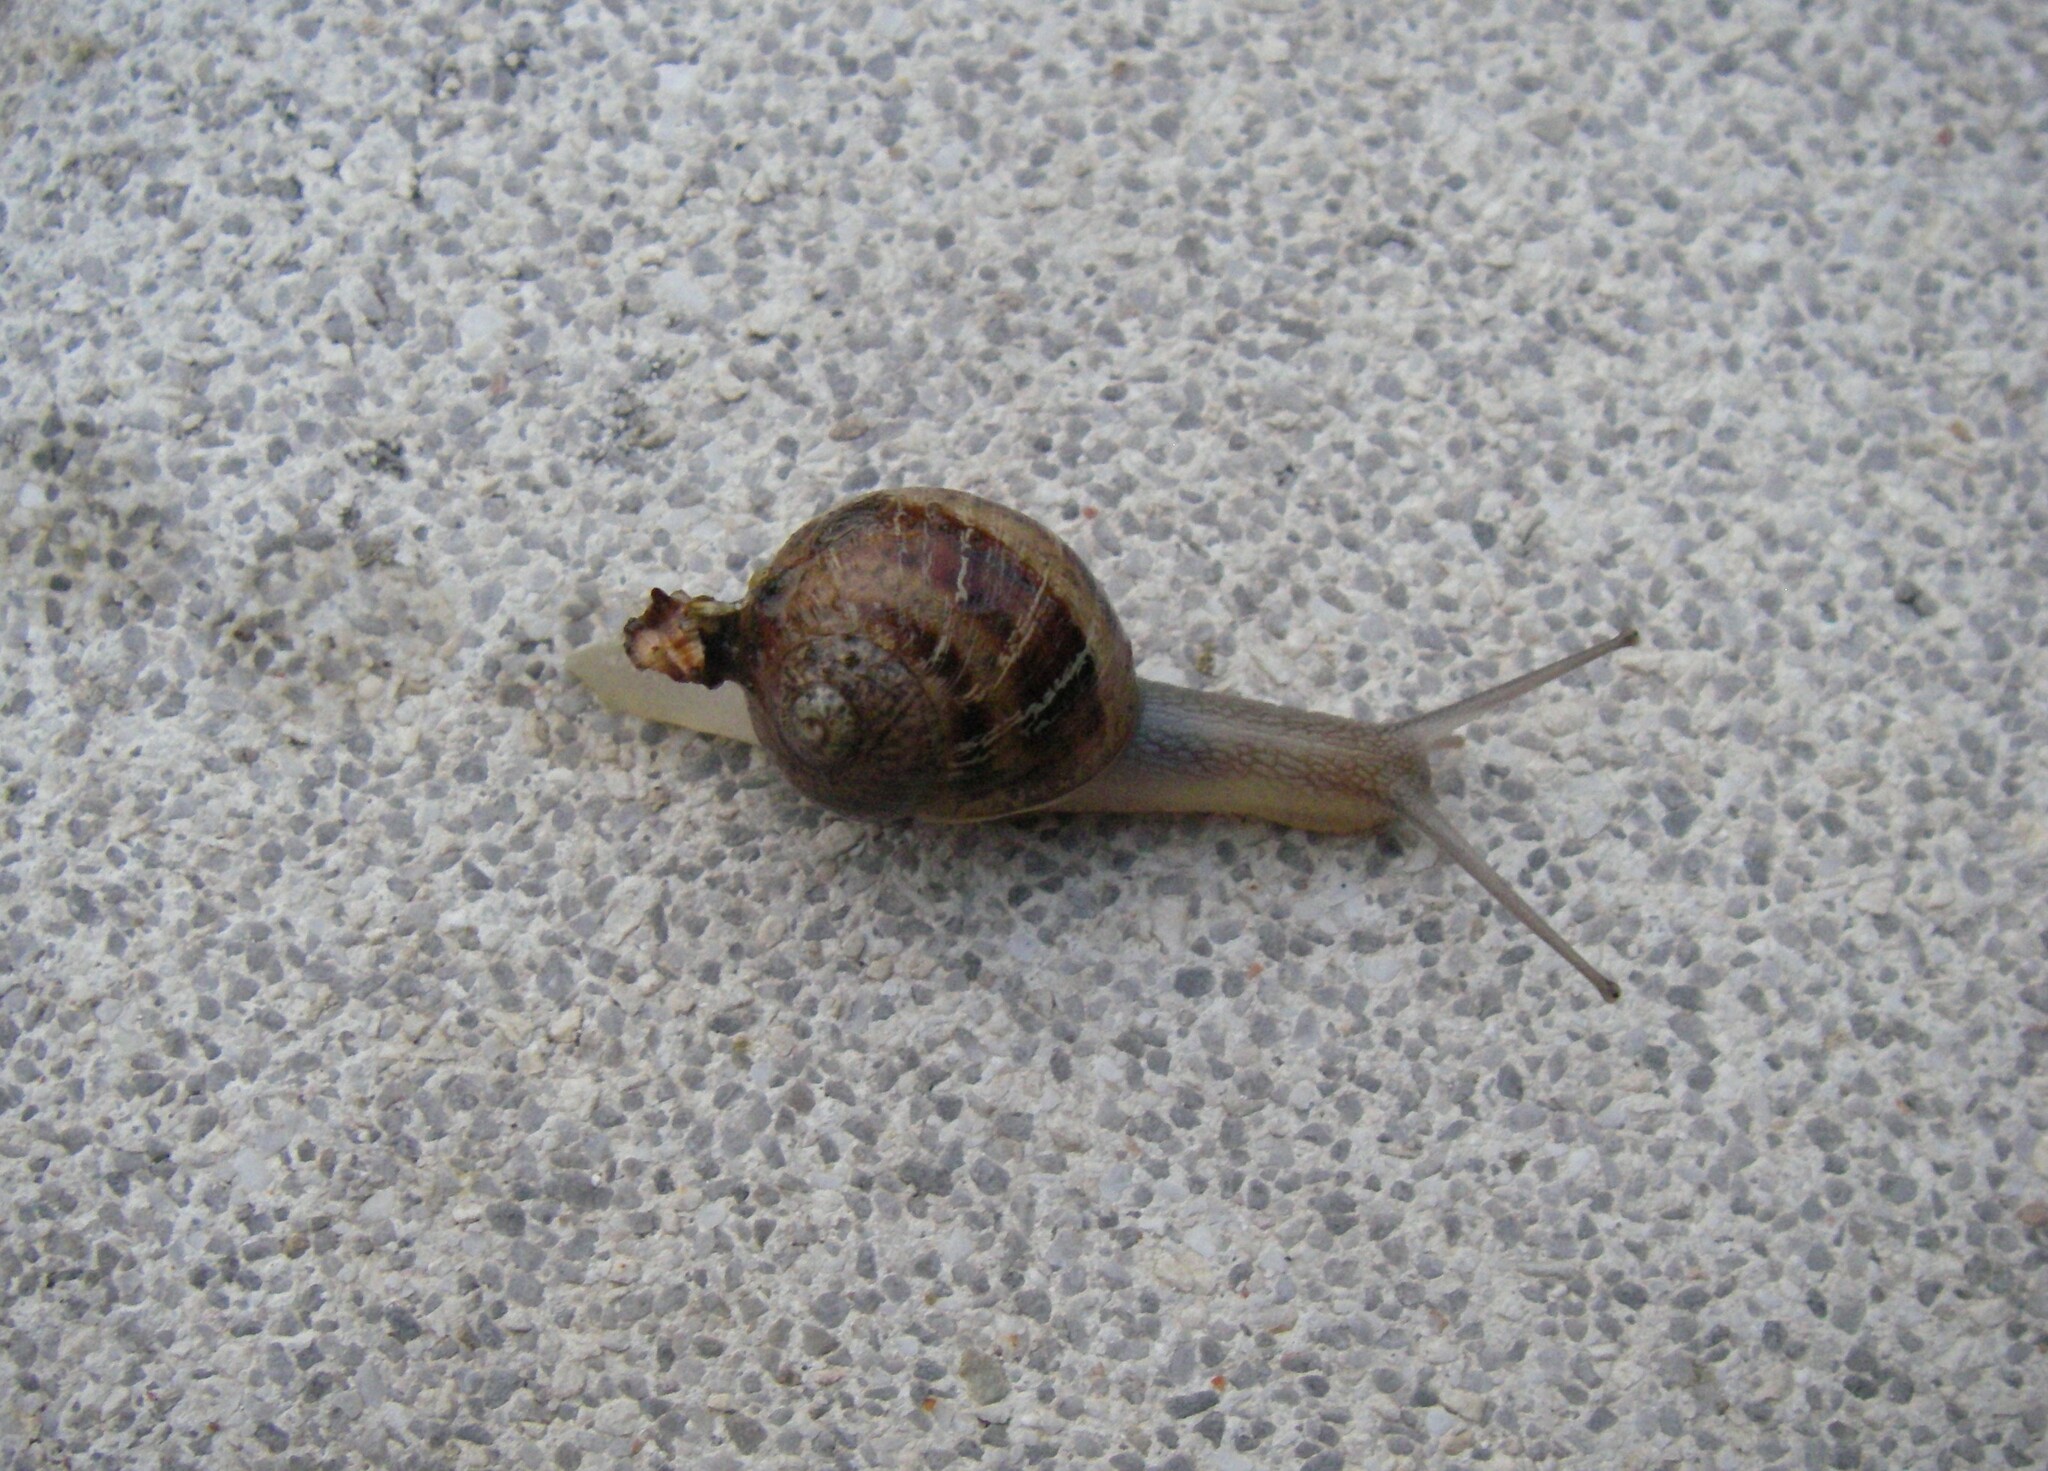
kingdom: Animalia
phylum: Mollusca
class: Gastropoda
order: Stylommatophora
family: Helicidae
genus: Cornu
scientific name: Cornu aspersum
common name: Brown garden snail
